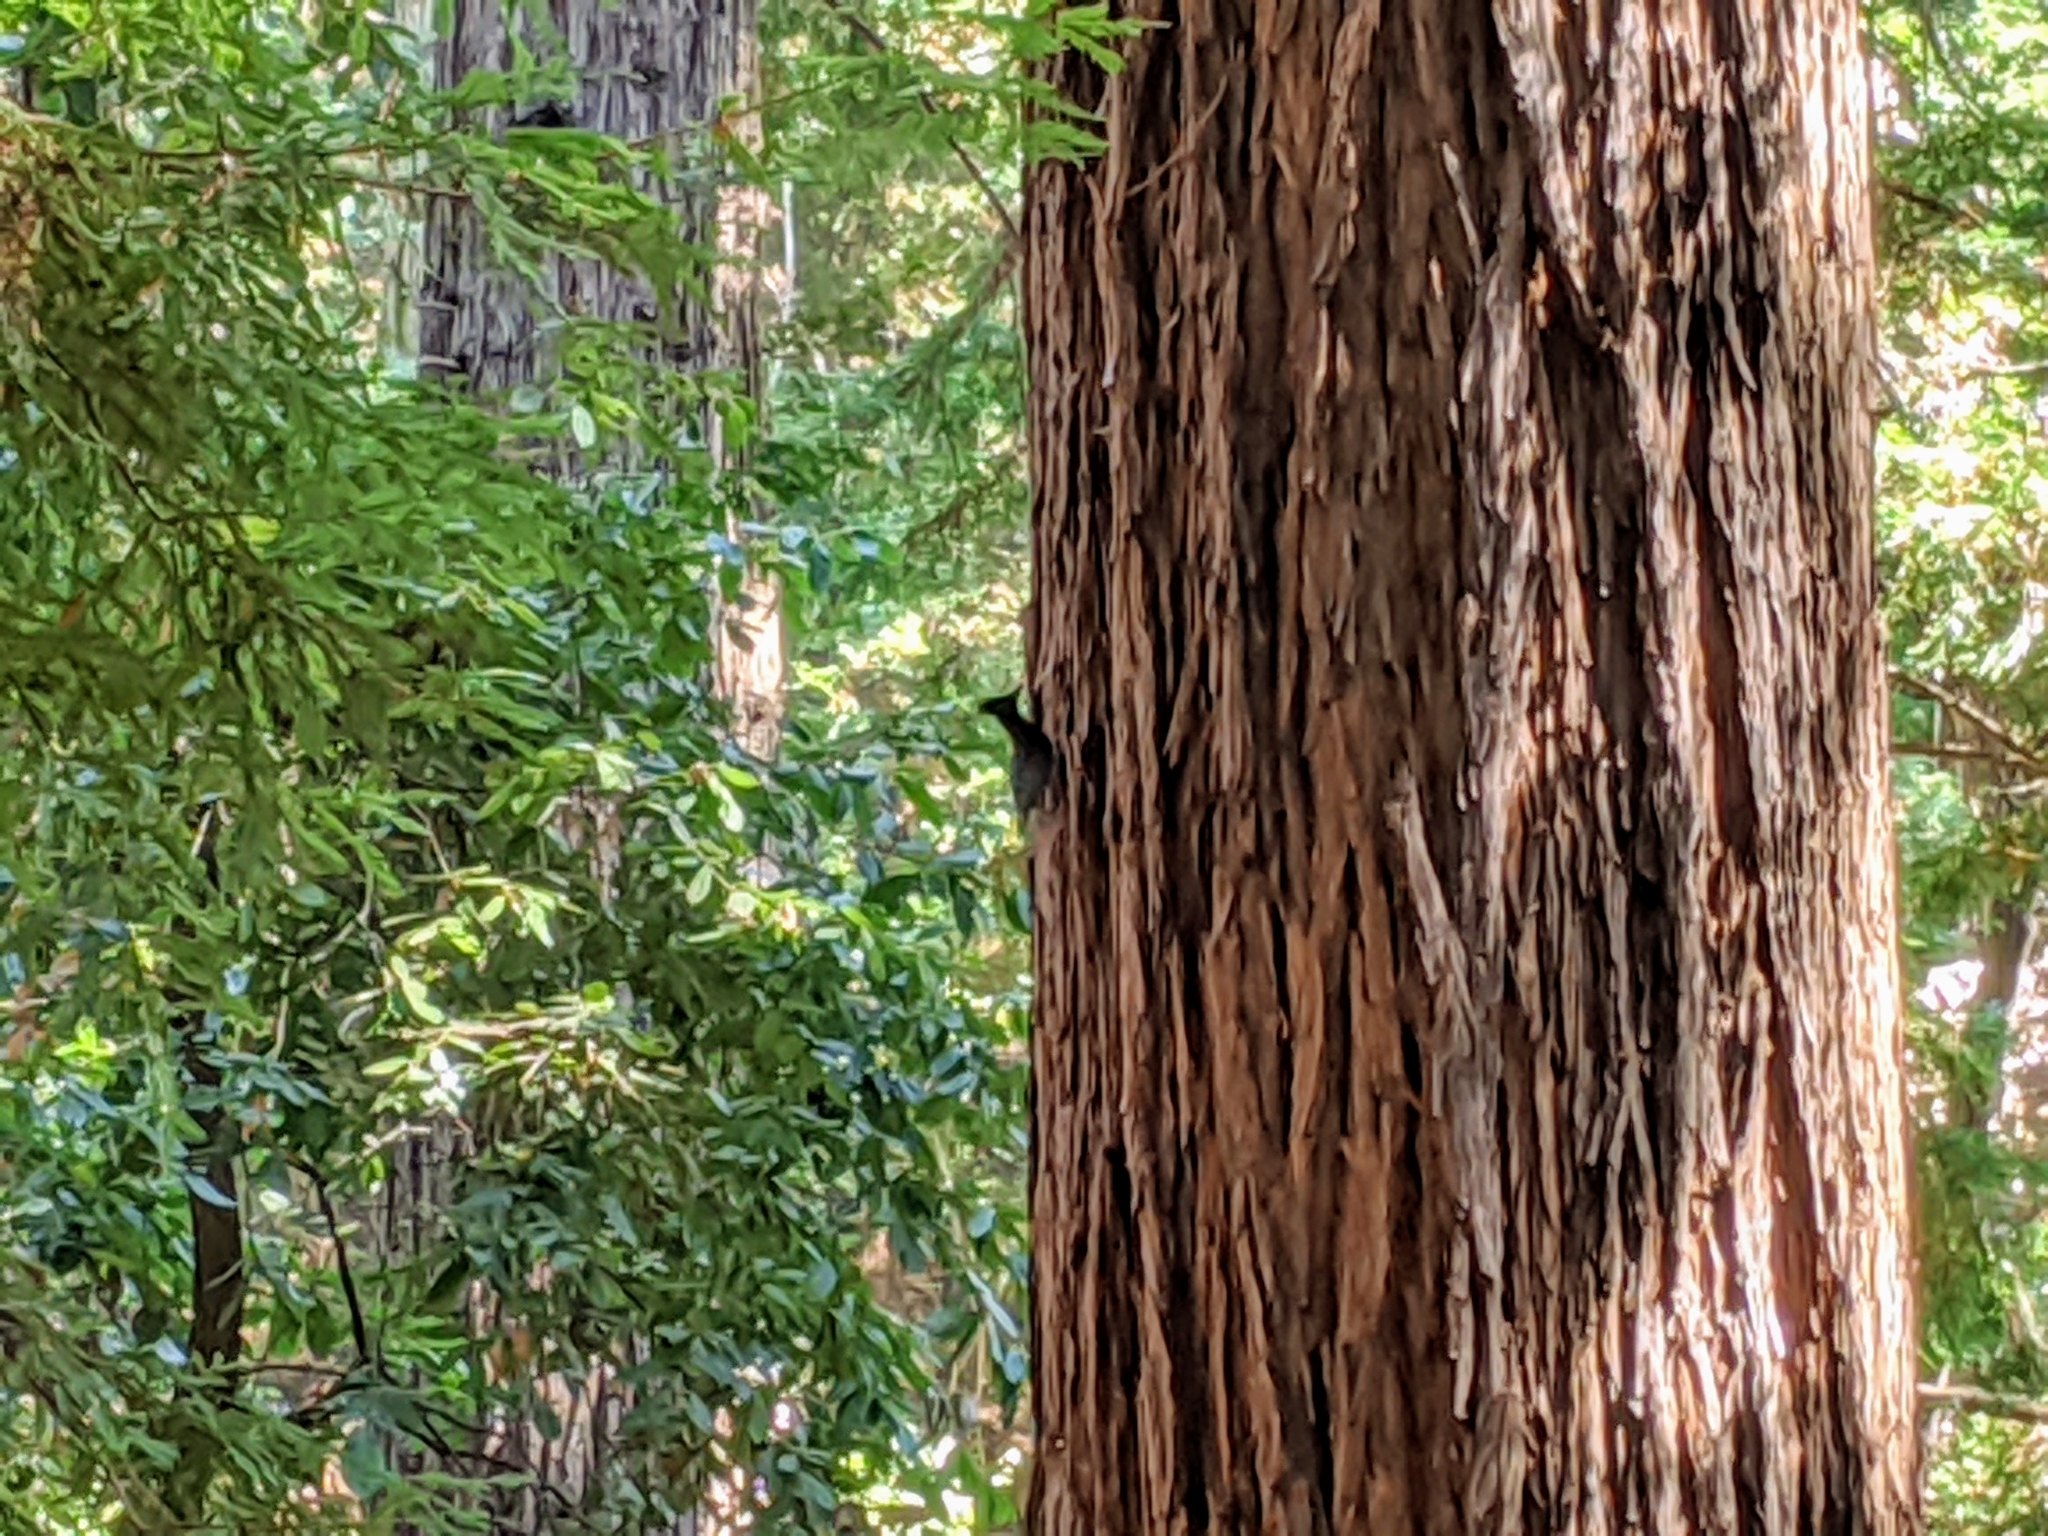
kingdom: Animalia
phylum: Chordata
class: Aves
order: Passeriformes
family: Corvidae
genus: Cyanocitta
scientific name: Cyanocitta stelleri
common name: Steller's jay
